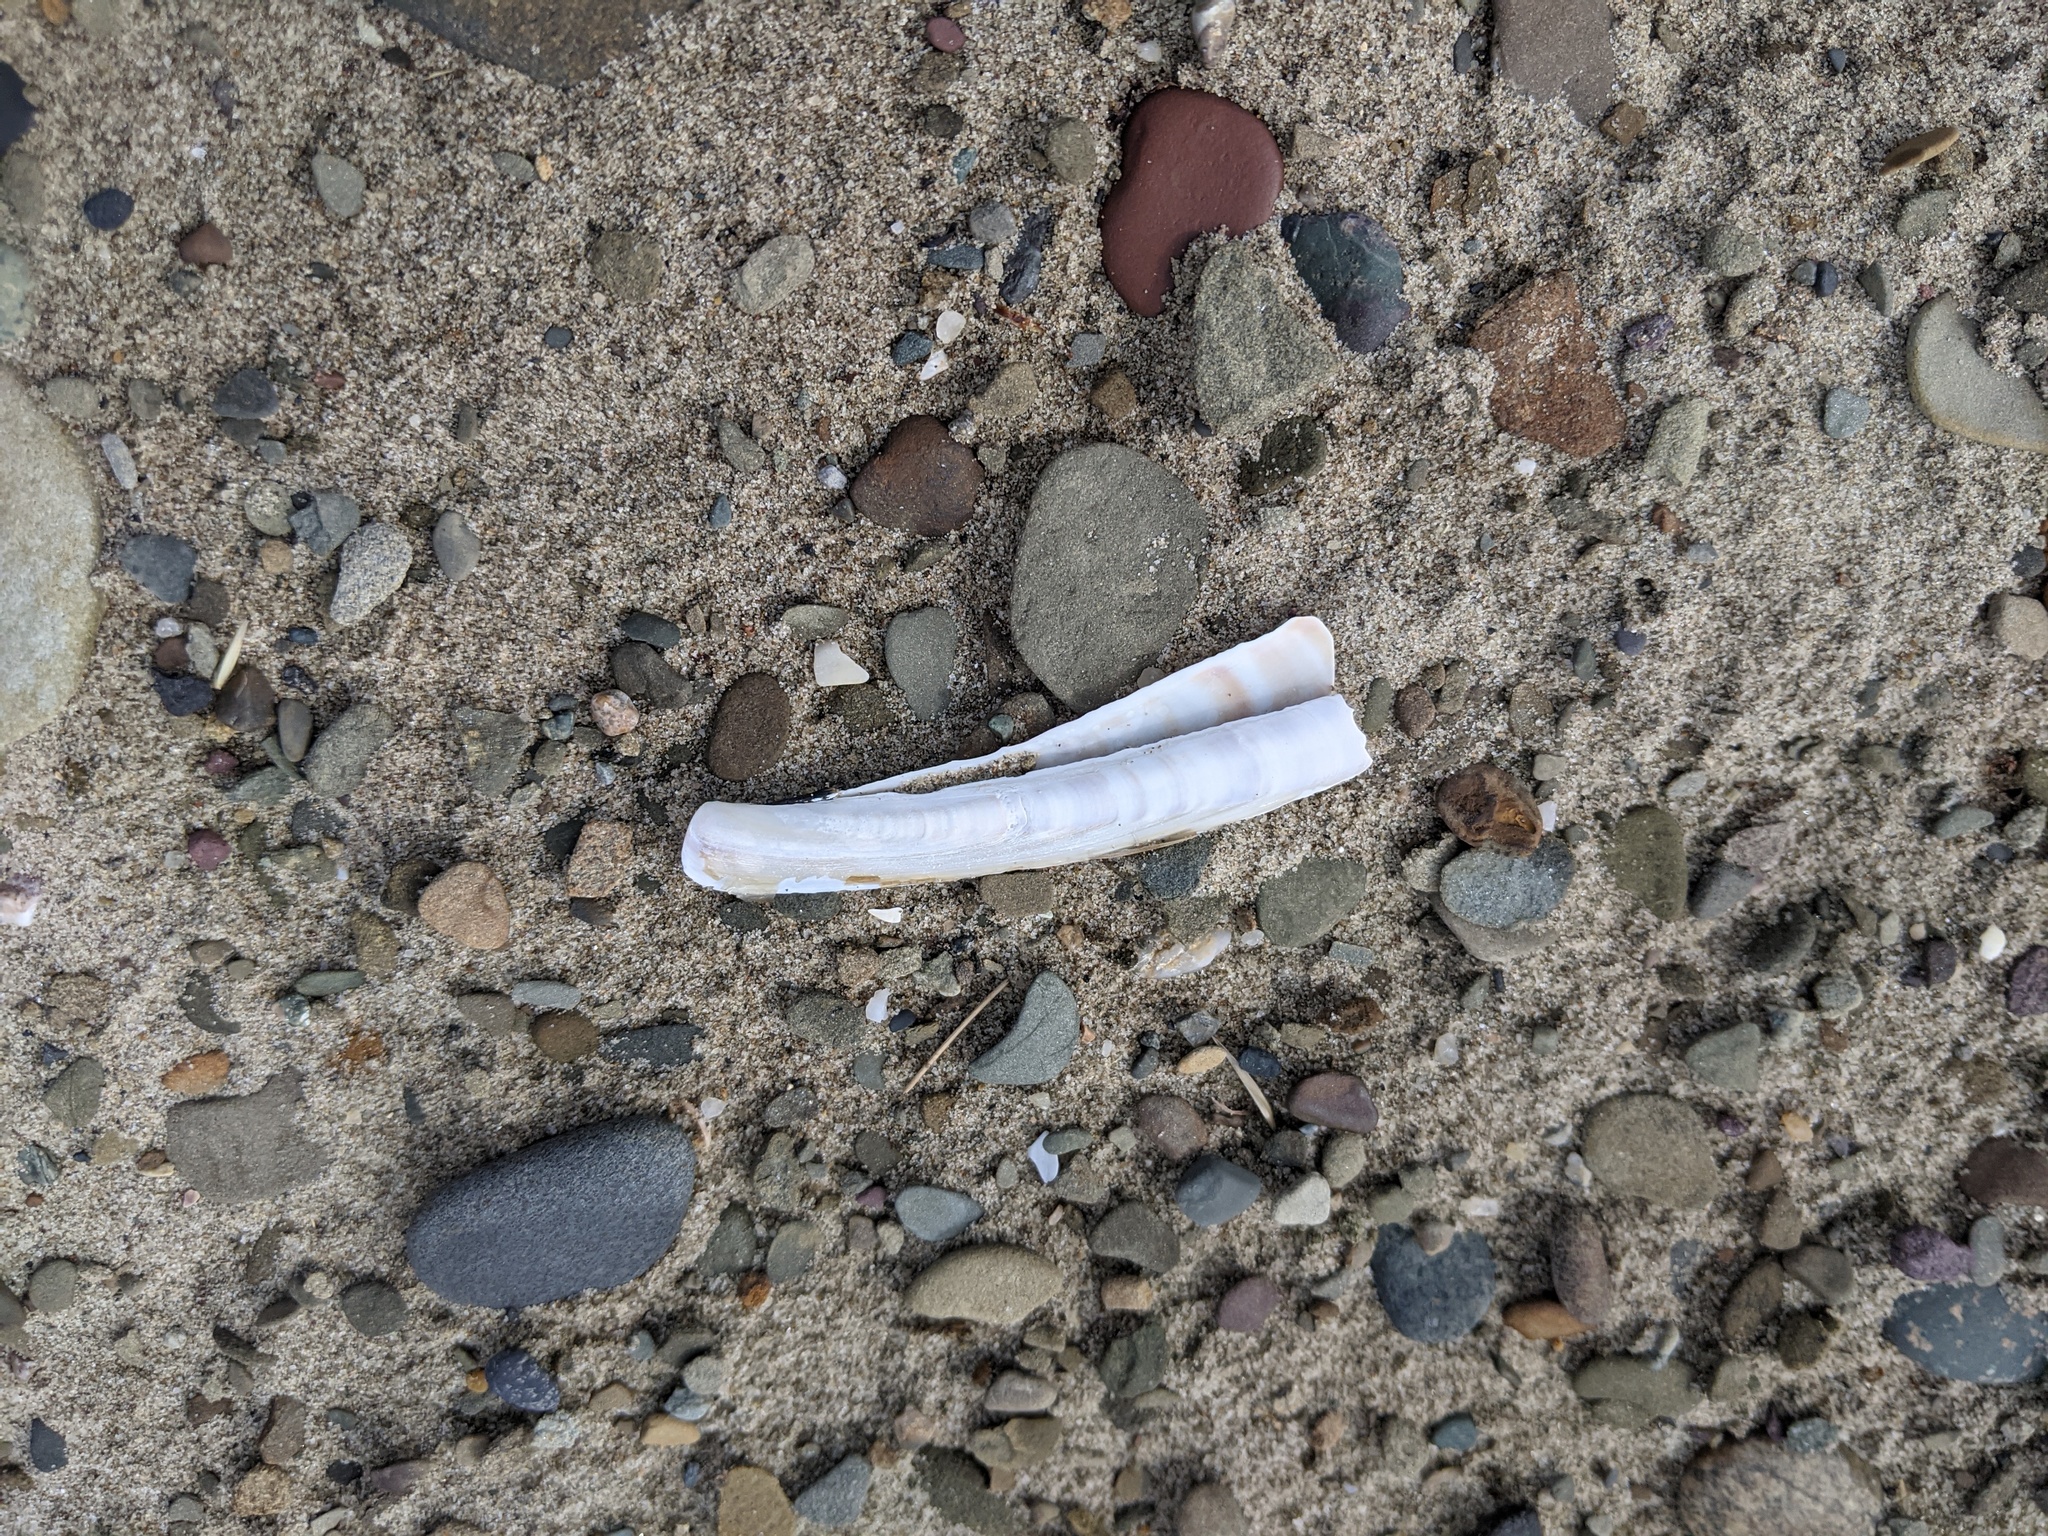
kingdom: Animalia
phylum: Mollusca
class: Bivalvia
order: Adapedonta
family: Pharidae
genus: Ensis
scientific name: Ensis leei
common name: American jack knife clam
